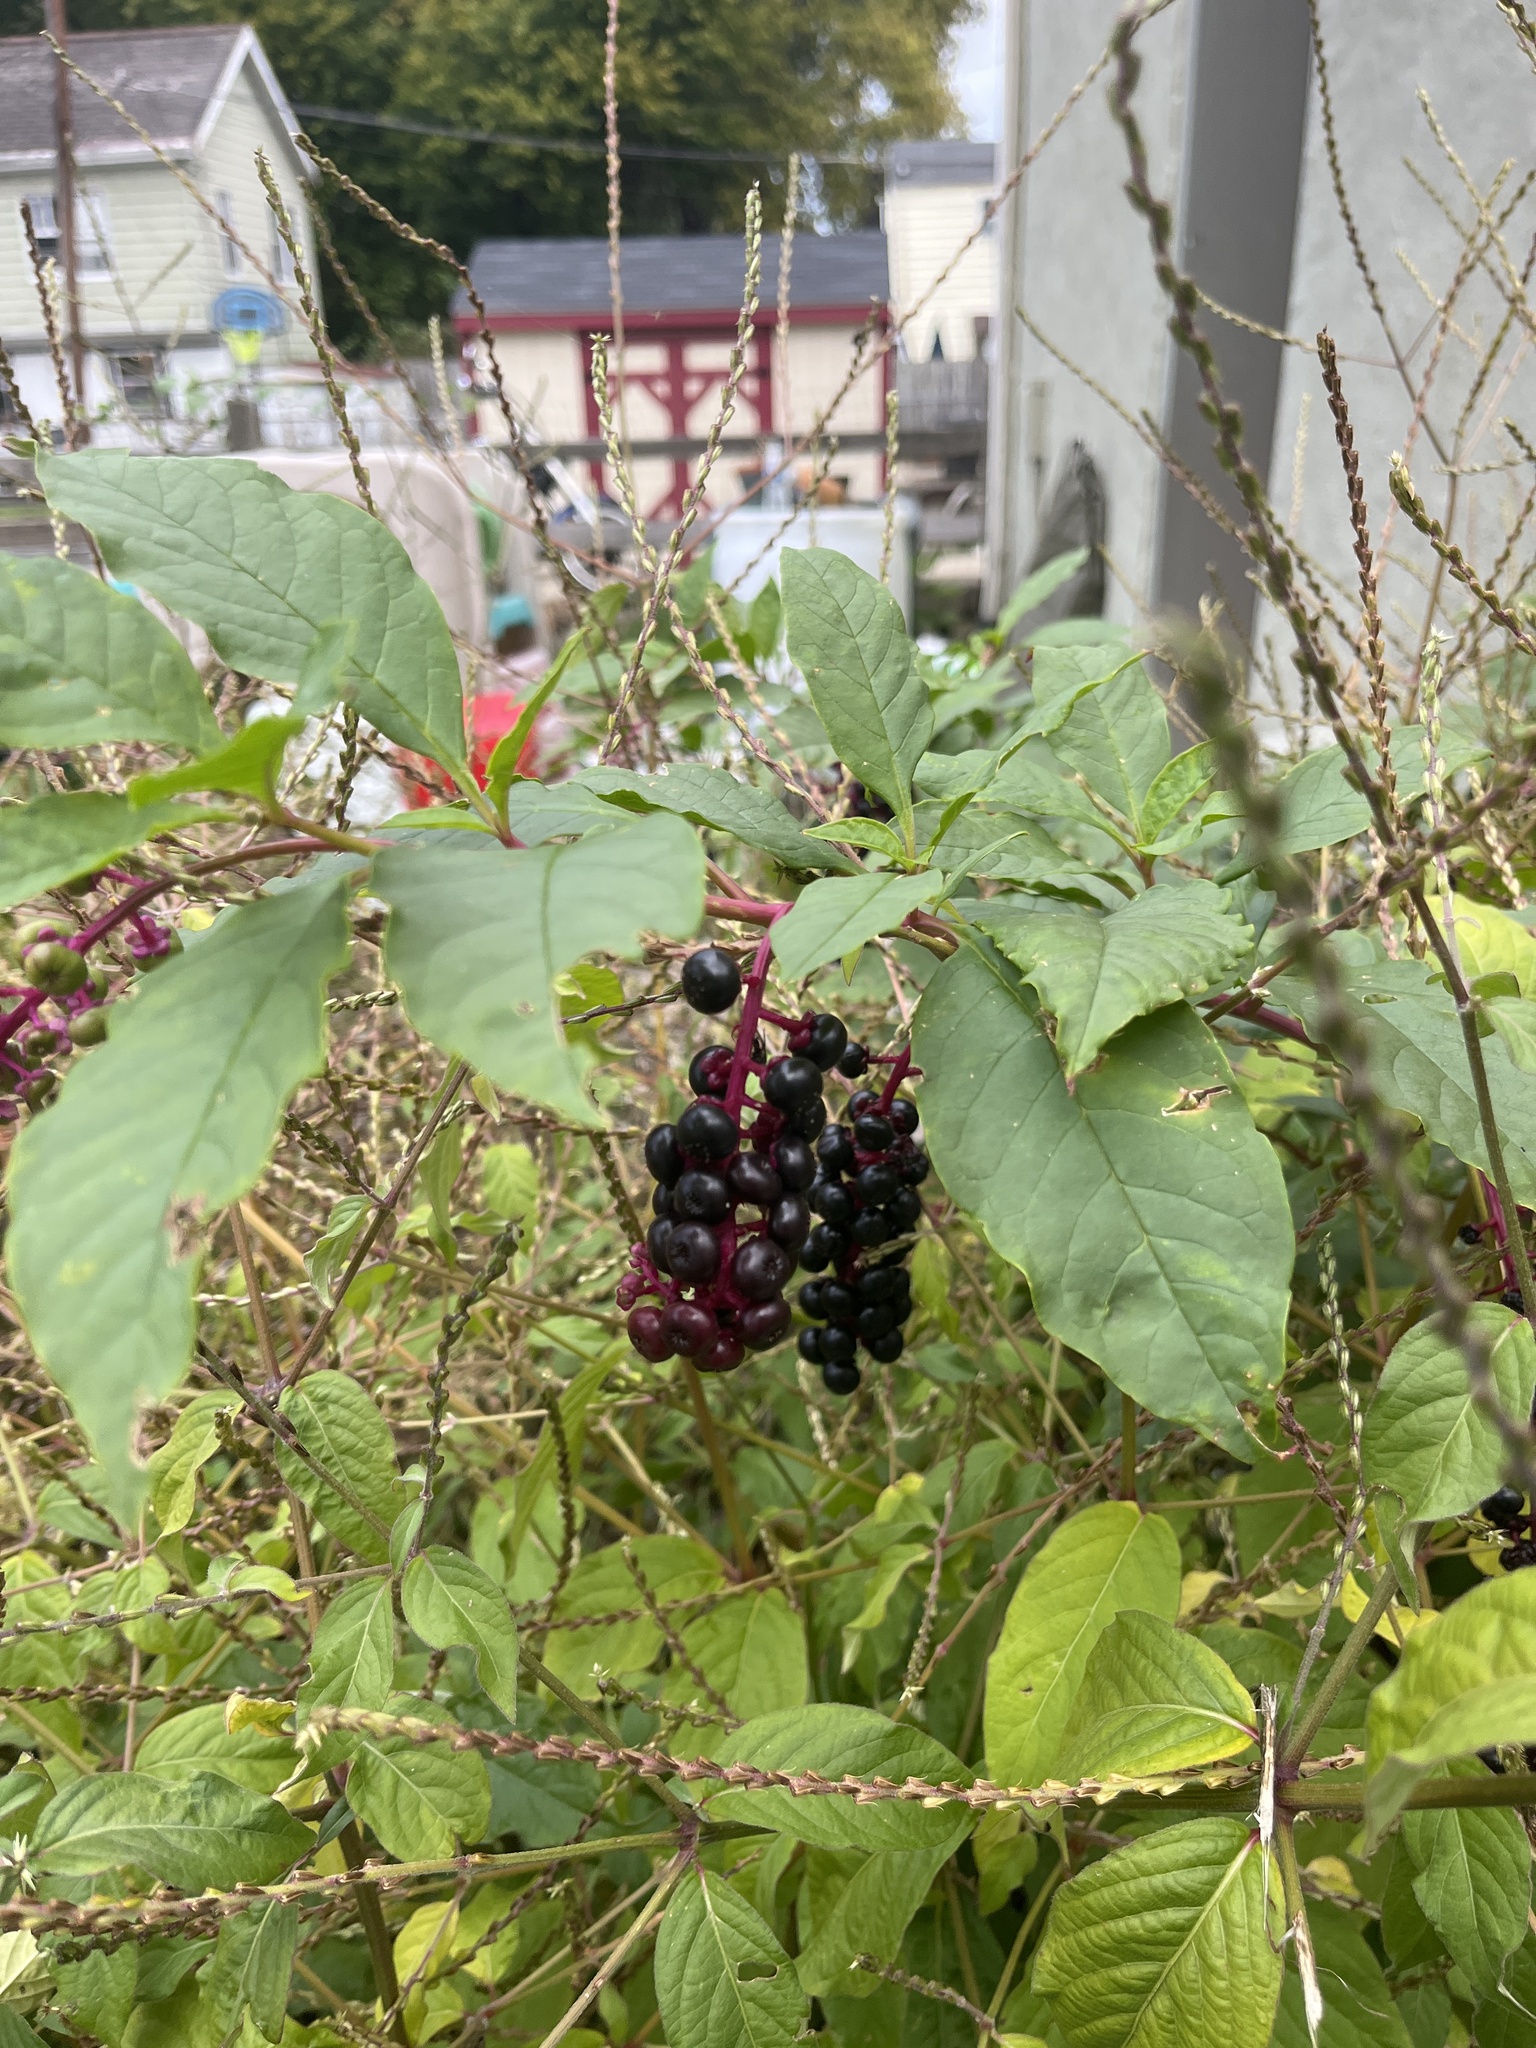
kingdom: Plantae
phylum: Tracheophyta
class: Magnoliopsida
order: Caryophyllales
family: Phytolaccaceae
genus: Phytolacca
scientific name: Phytolacca americana
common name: American pokeweed
